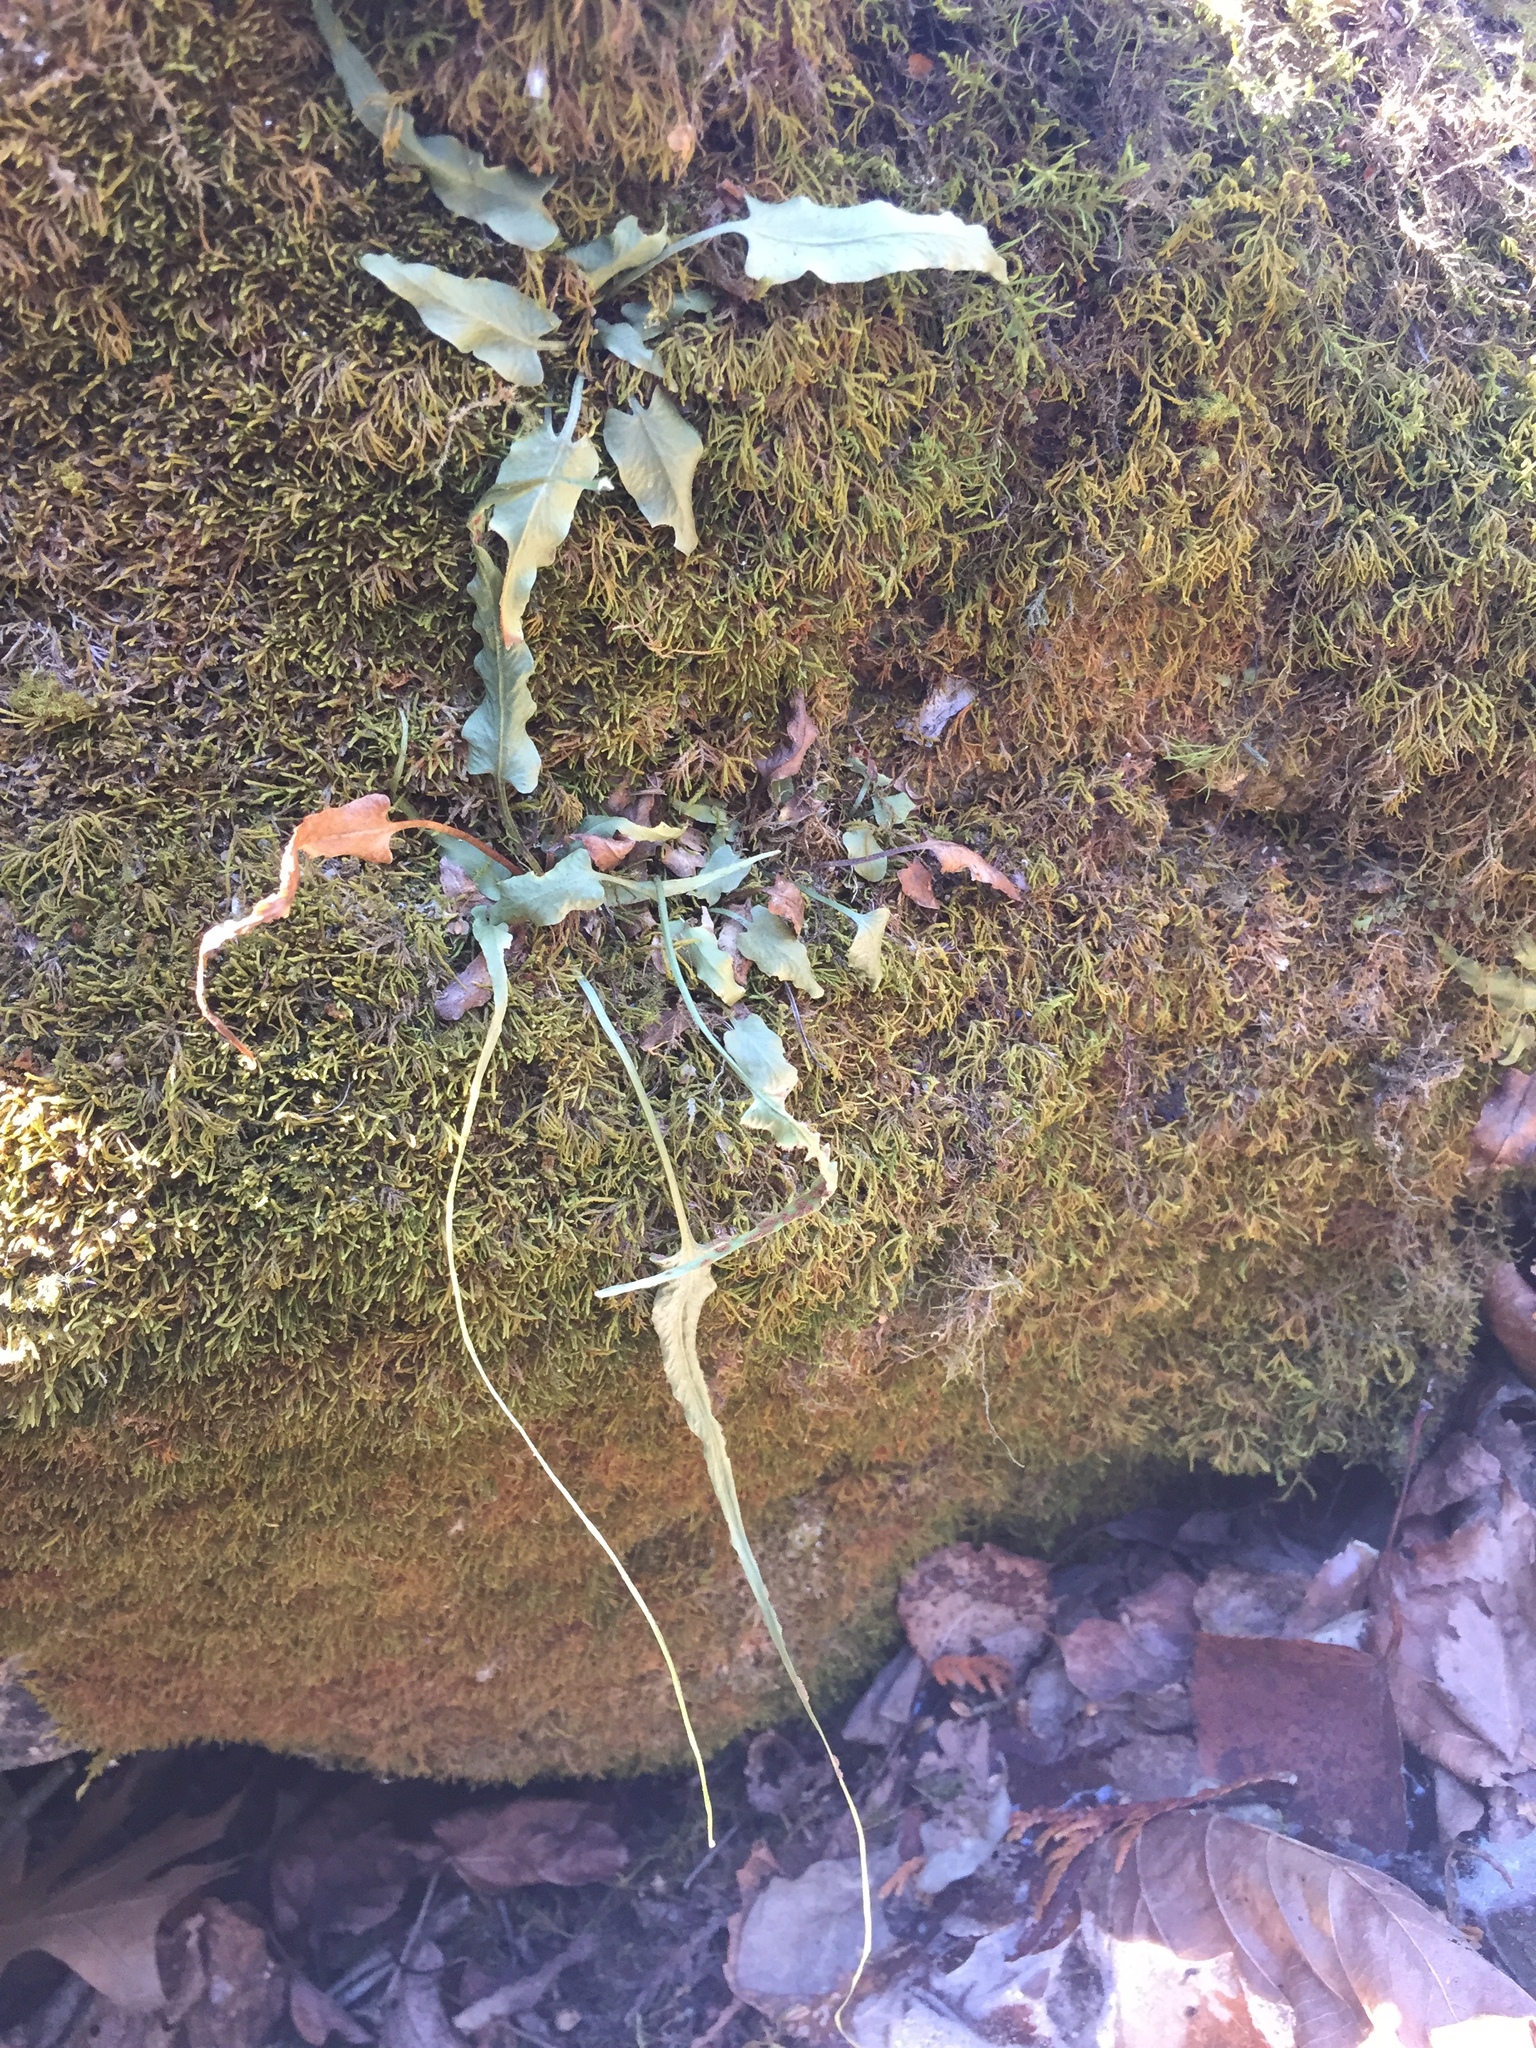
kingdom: Plantae
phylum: Tracheophyta
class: Polypodiopsida
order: Polypodiales
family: Aspleniaceae
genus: Asplenium
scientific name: Asplenium rhizophyllum
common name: Walking fern
